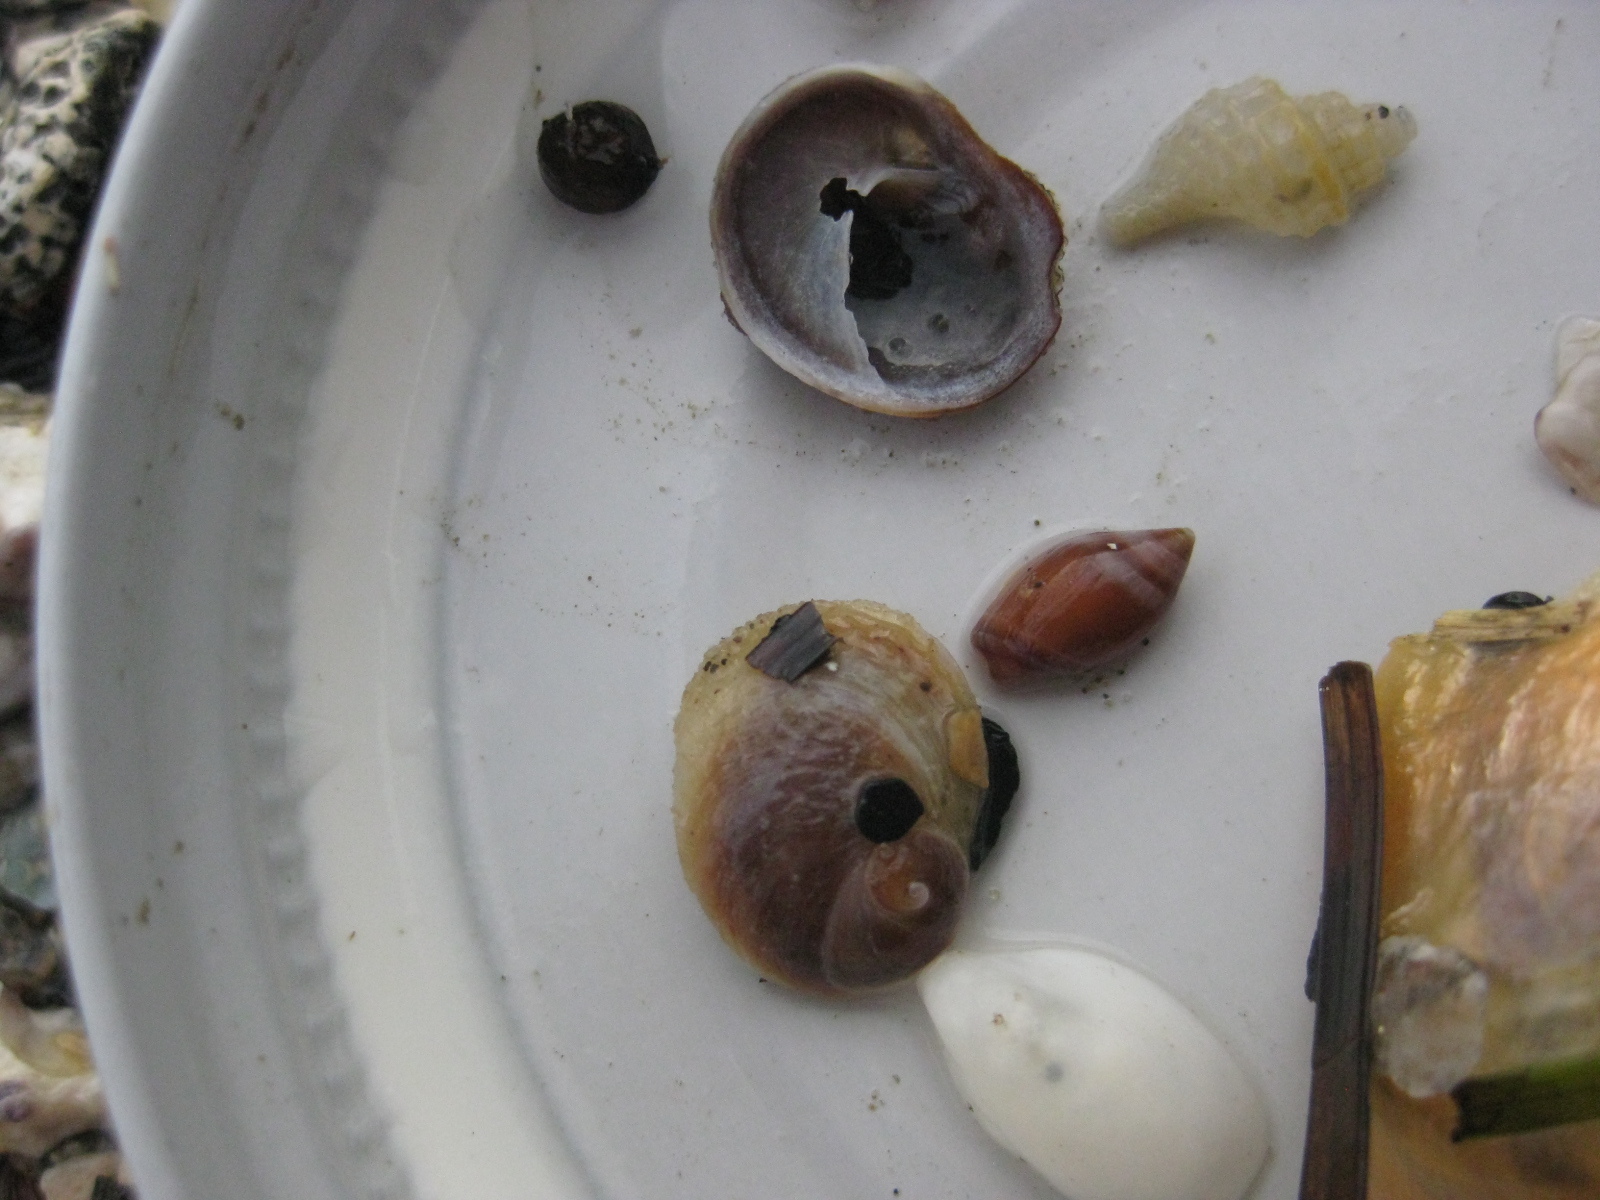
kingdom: Animalia
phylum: Mollusca
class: Gastropoda
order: Littorinimorpha
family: Calyptraeidae
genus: Sigapatella
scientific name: Sigapatella novaezelandiae
